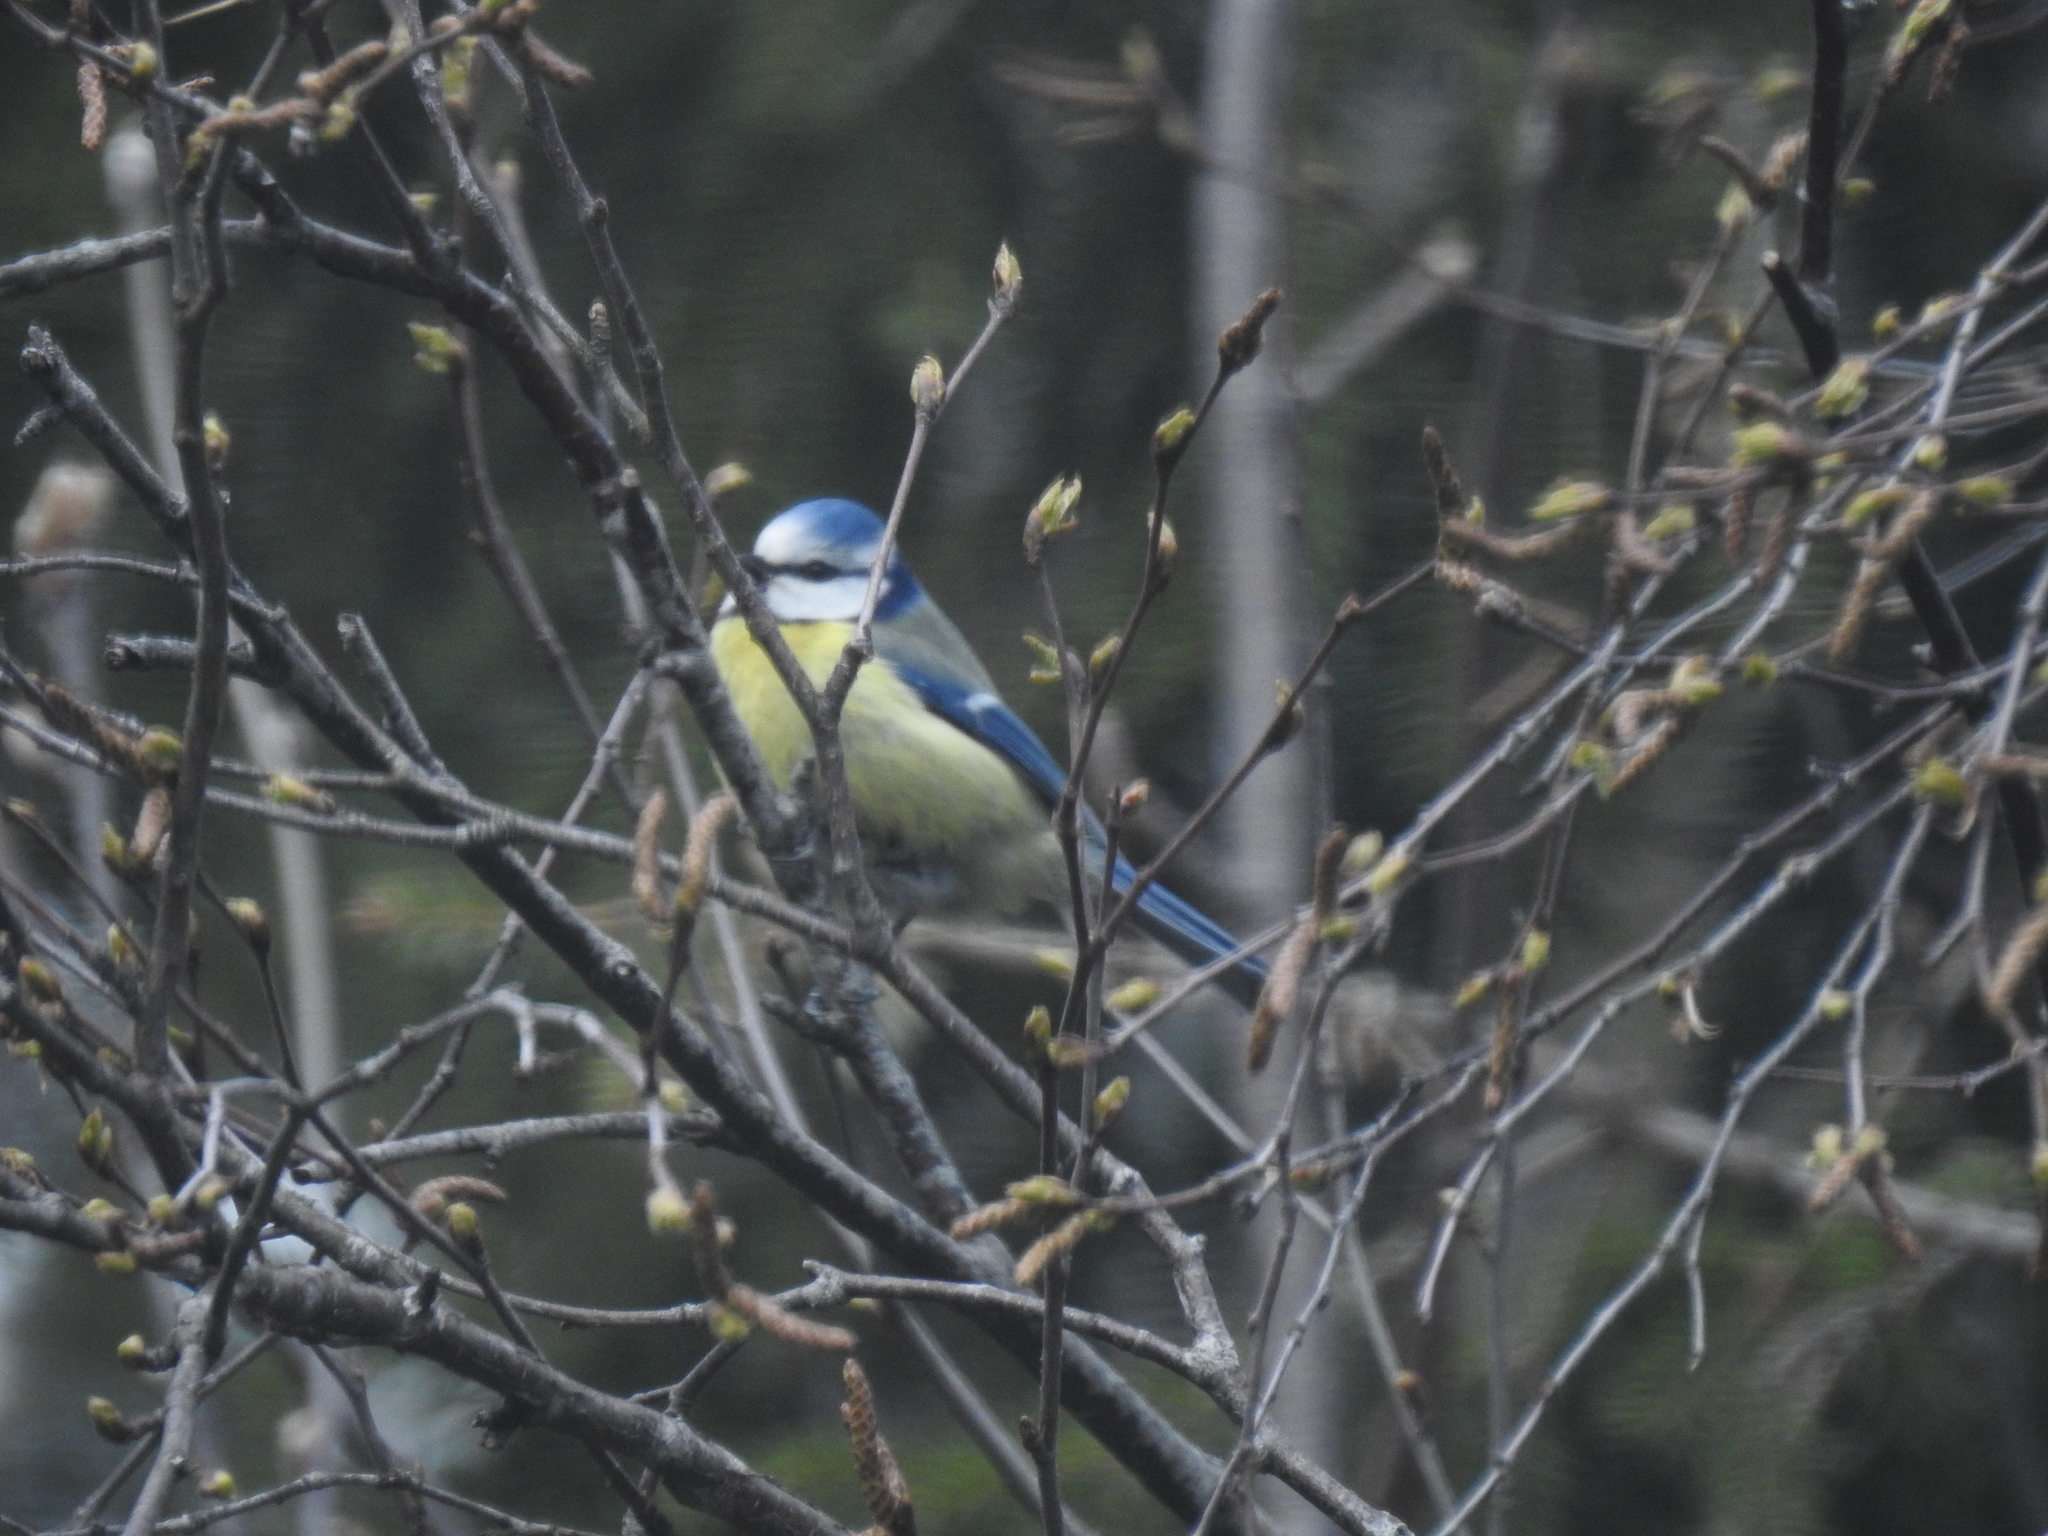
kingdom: Animalia
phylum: Chordata
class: Aves
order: Passeriformes
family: Paridae
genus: Cyanistes
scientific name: Cyanistes caeruleus
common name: Eurasian blue tit
